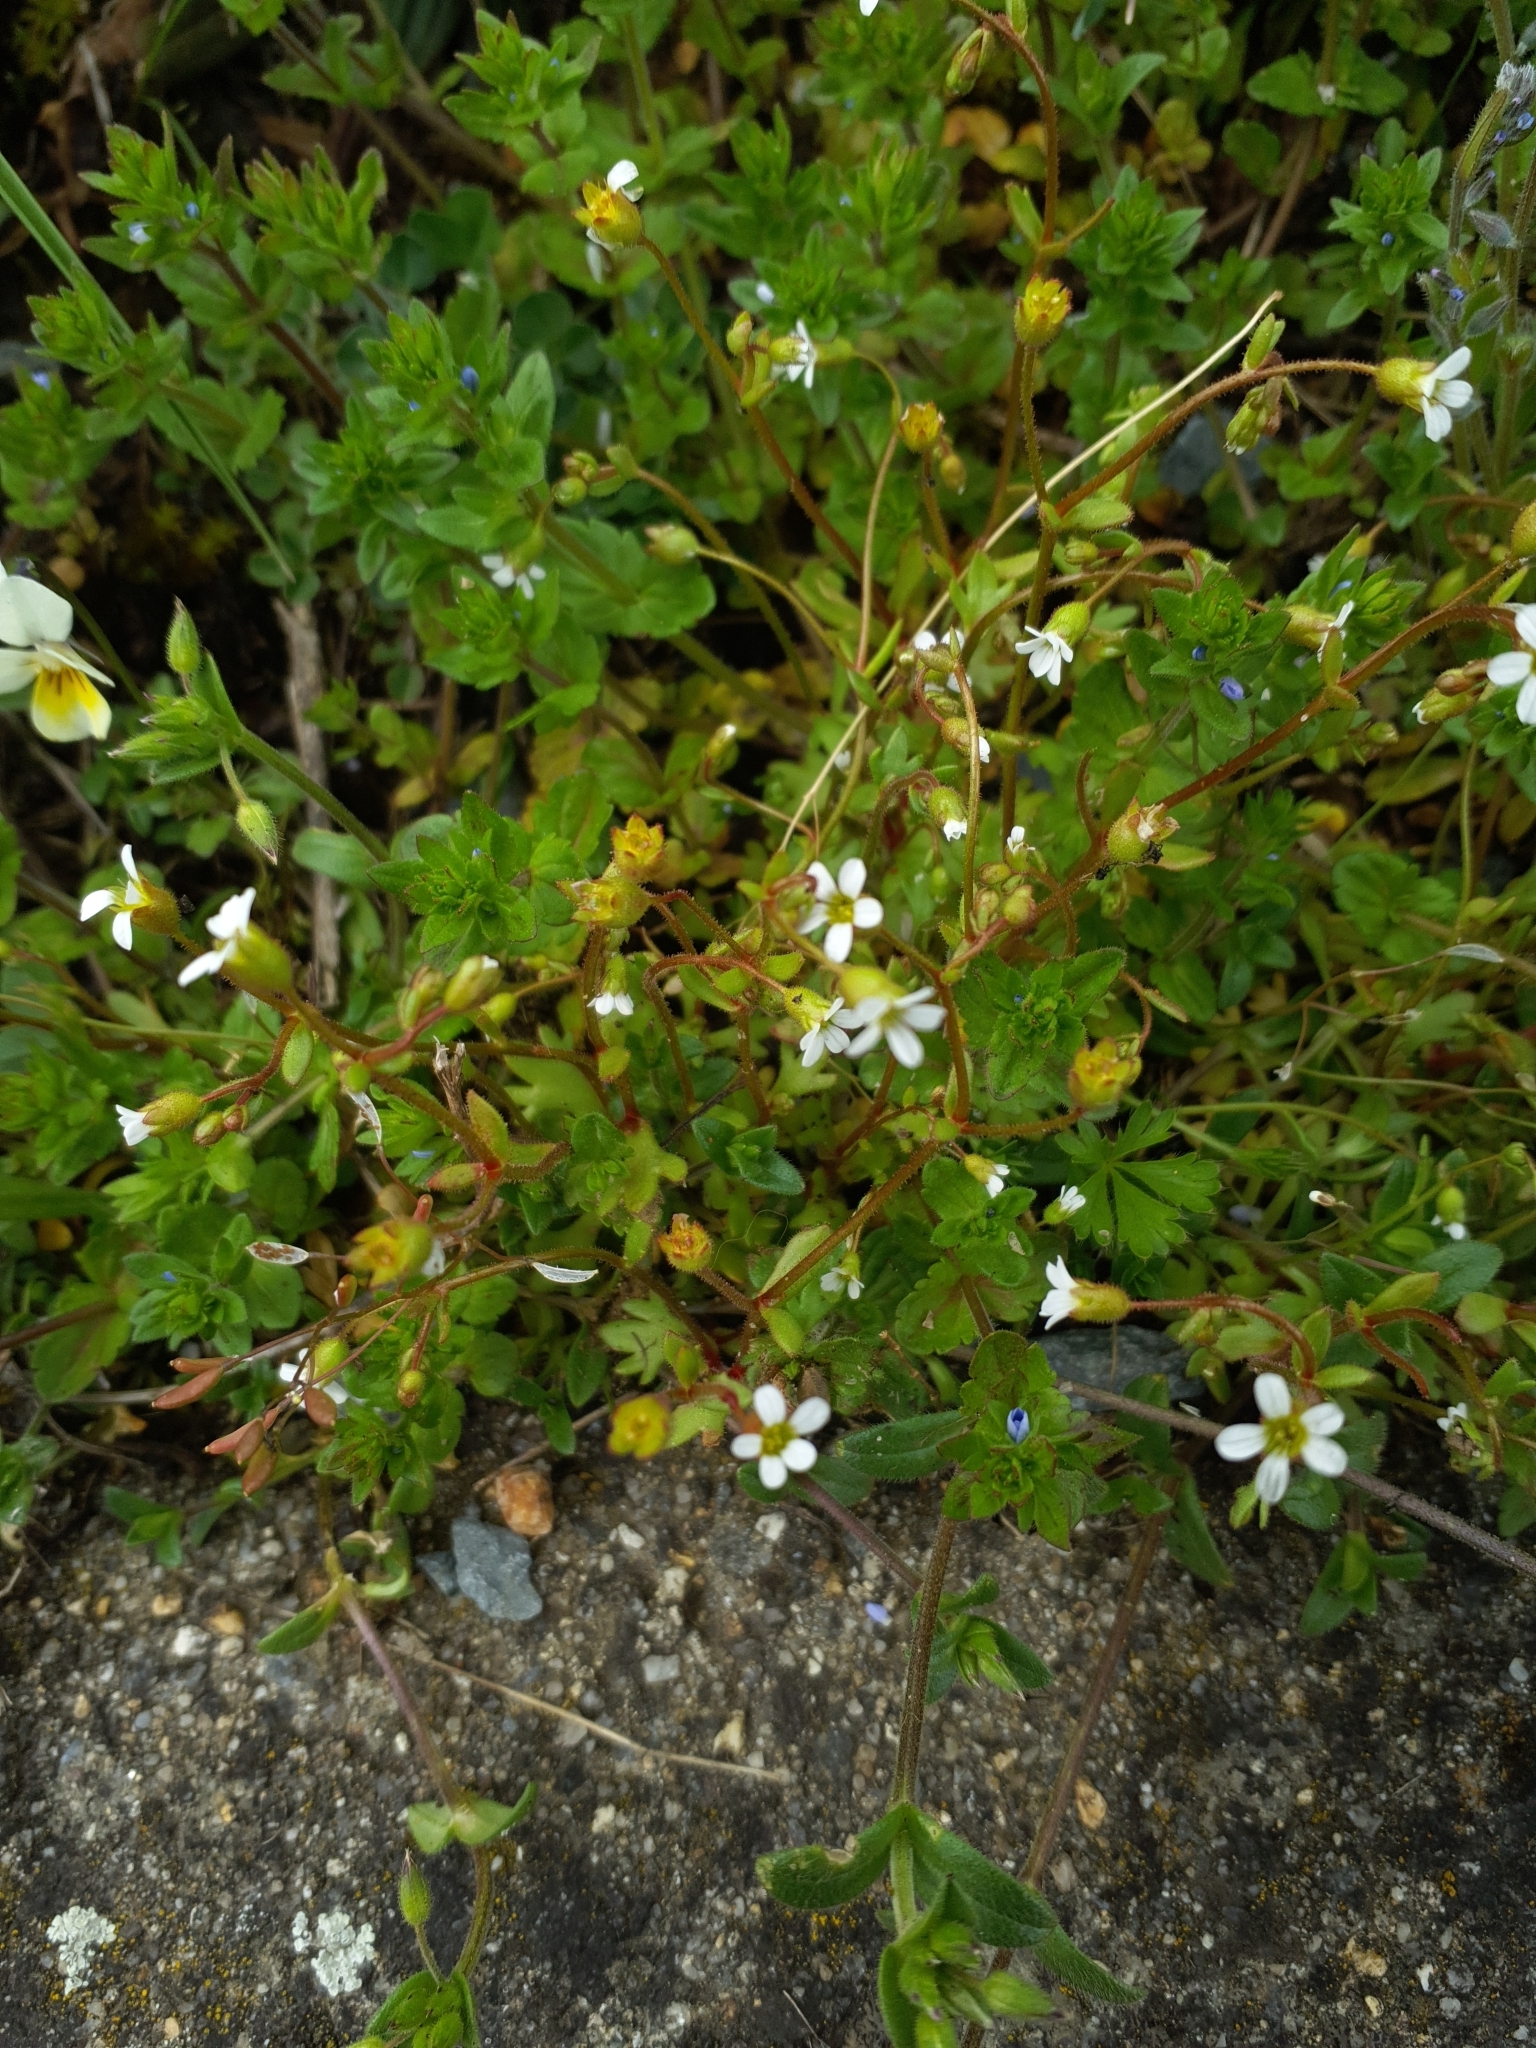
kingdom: Plantae
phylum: Tracheophyta
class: Magnoliopsida
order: Saxifragales
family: Saxifragaceae
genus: Saxifraga
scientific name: Saxifraga tridactylites
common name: Rue-leaved saxifrage
